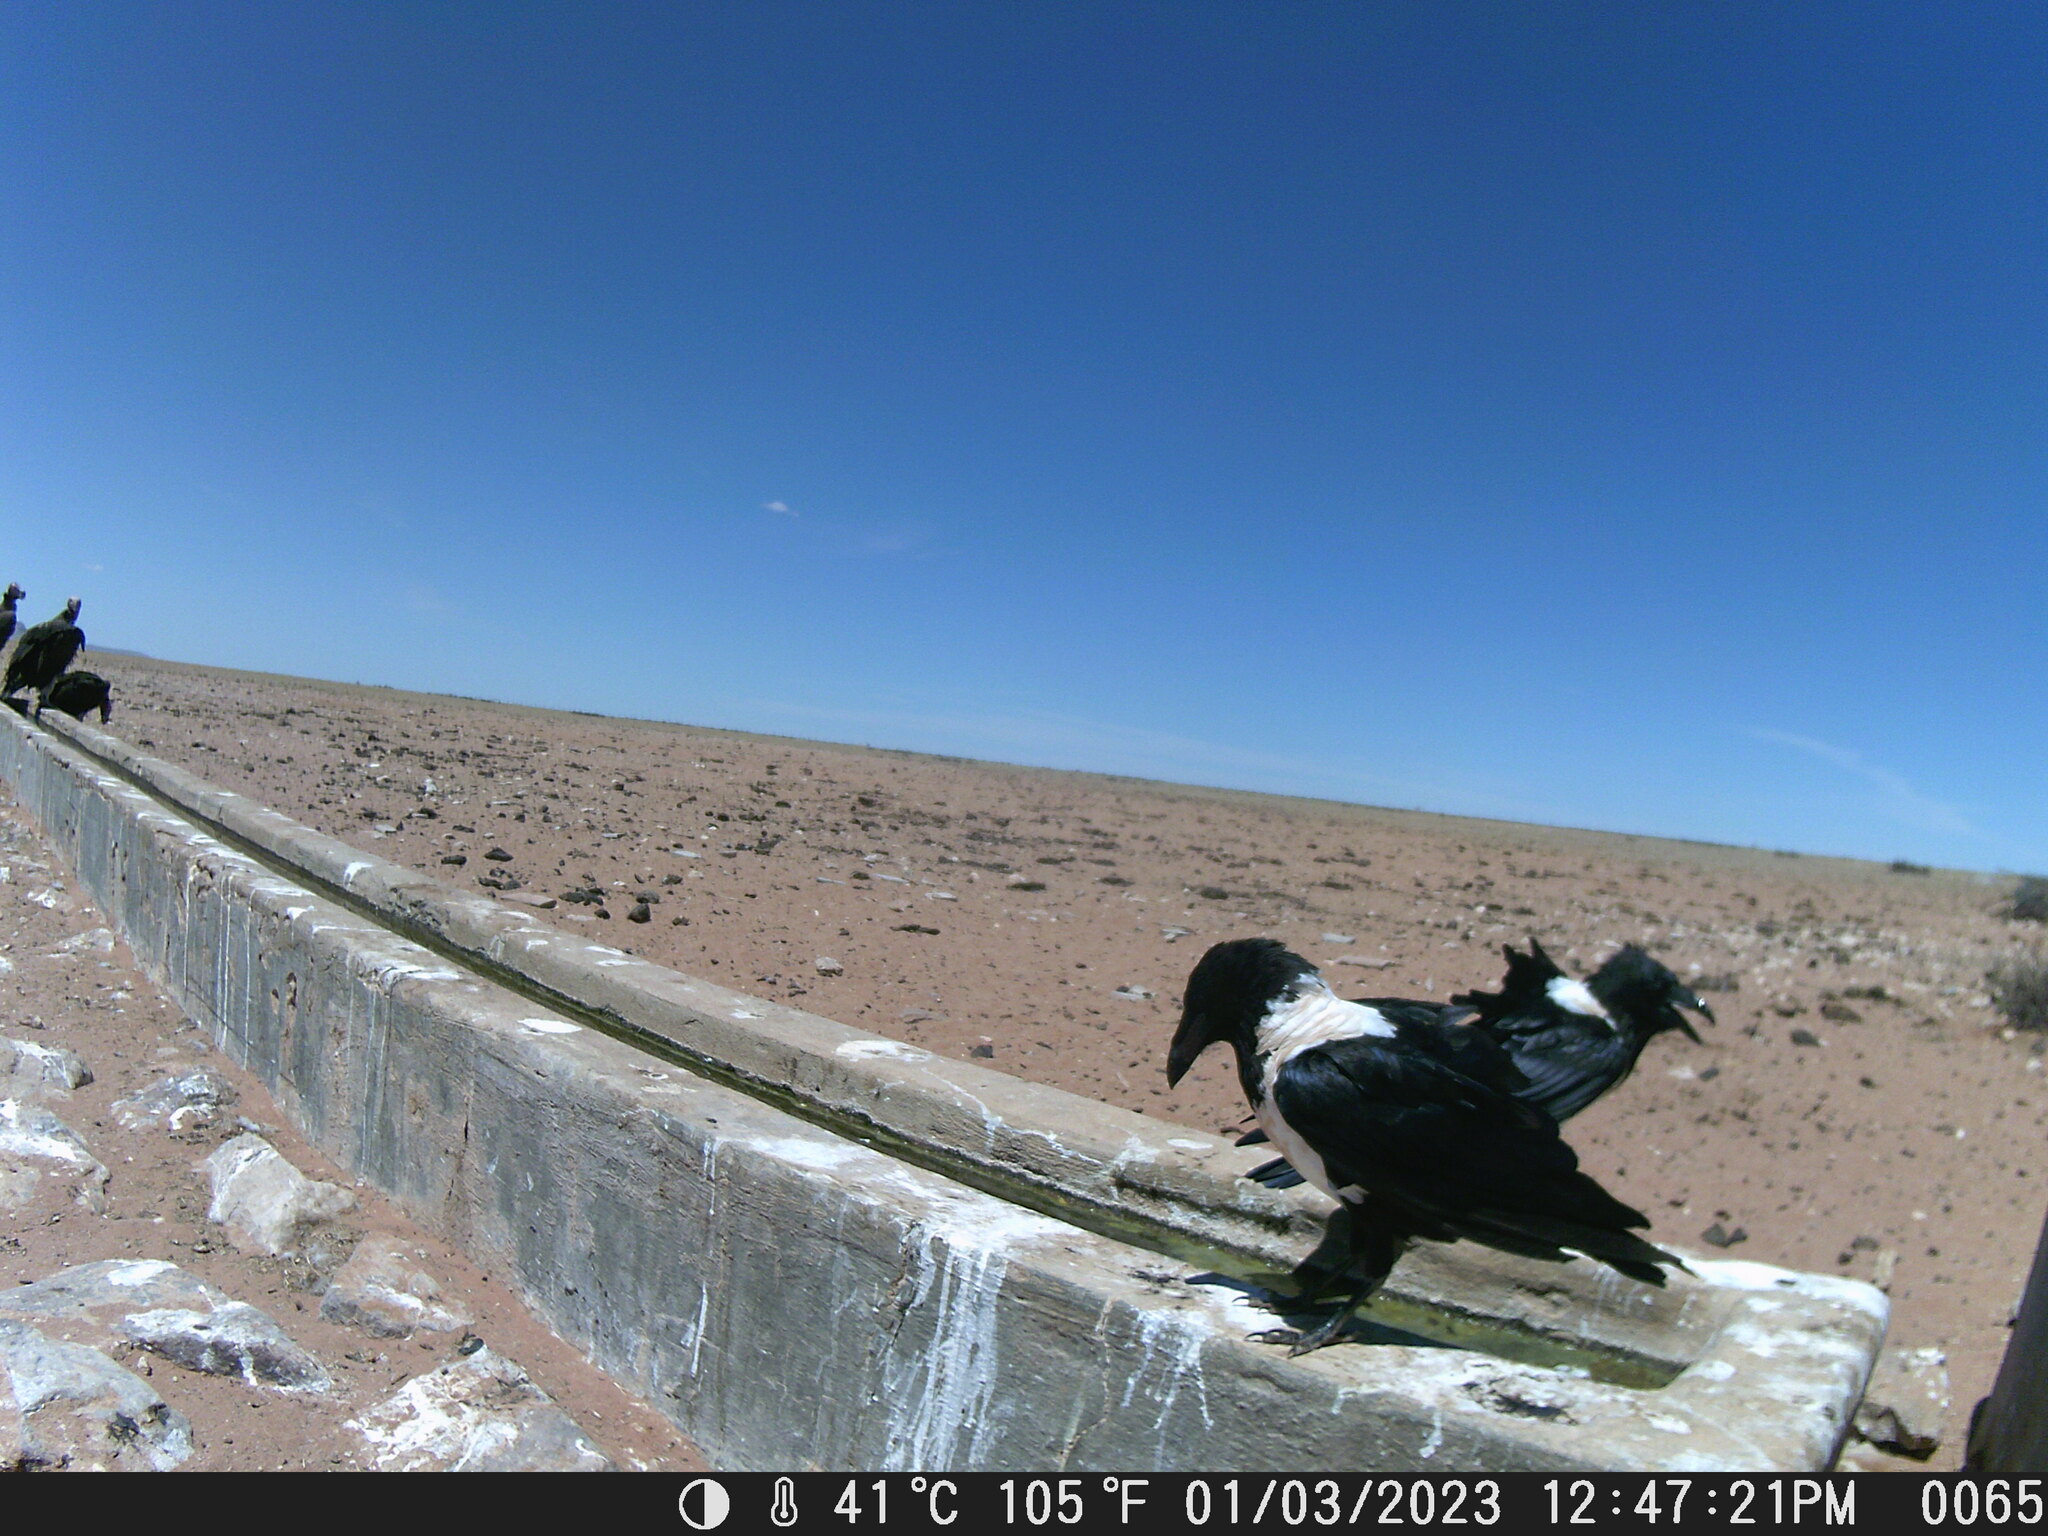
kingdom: Animalia
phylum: Chordata
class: Aves
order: Passeriformes
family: Corvidae
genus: Corvus
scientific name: Corvus albus
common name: Pied crow
